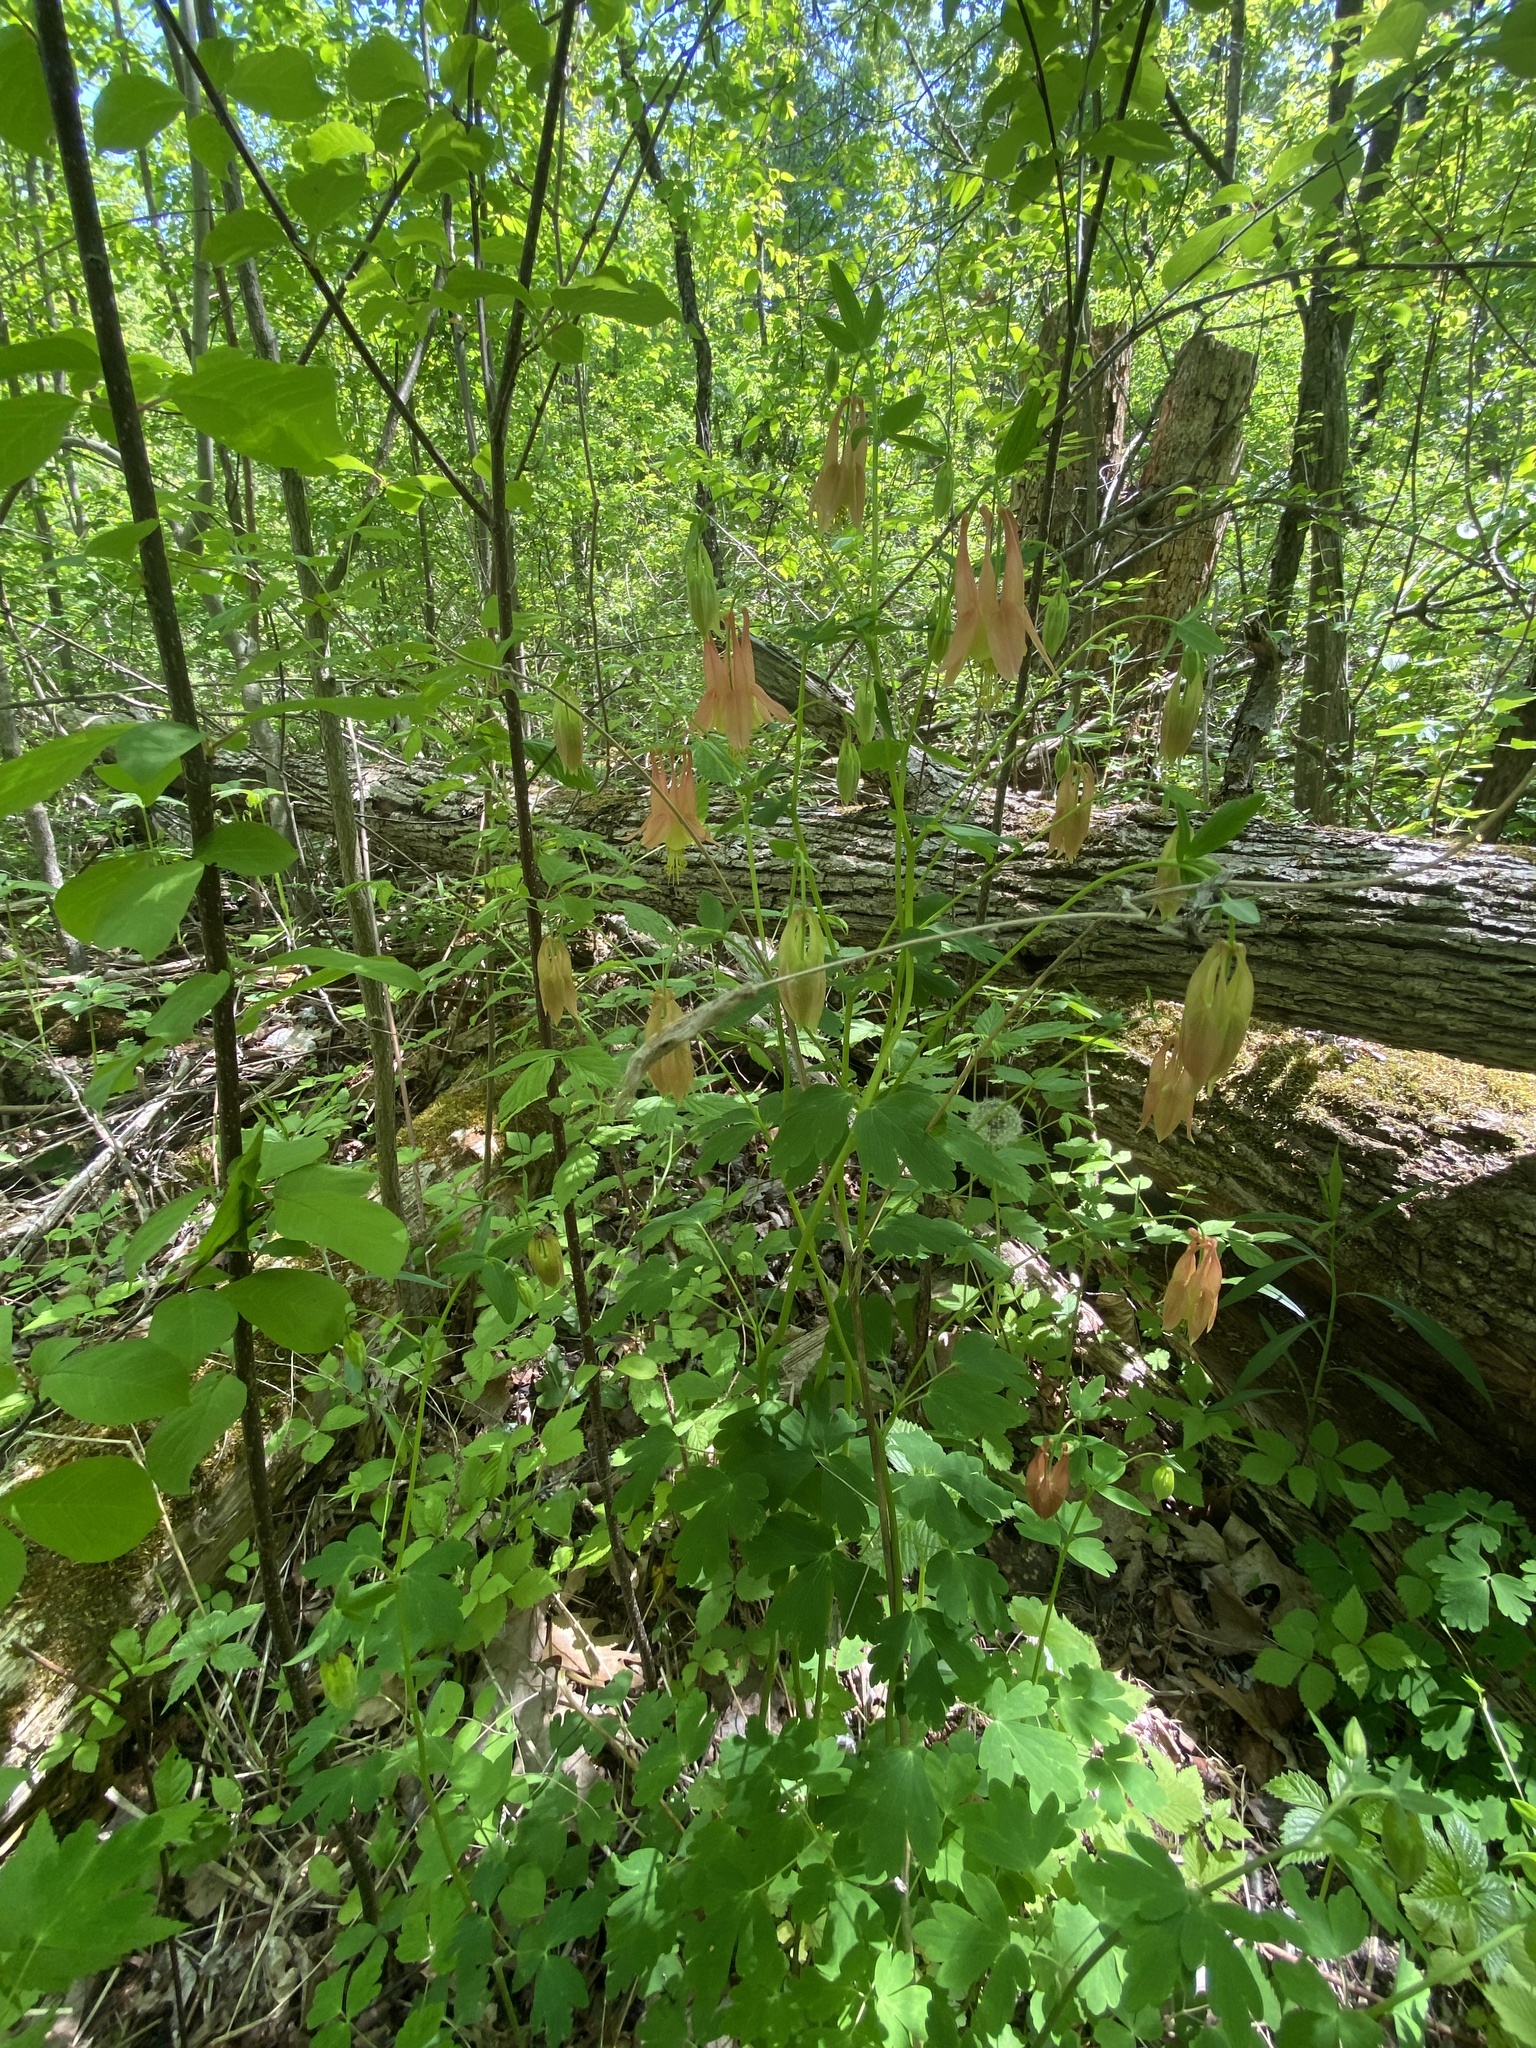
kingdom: Plantae
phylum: Tracheophyta
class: Magnoliopsida
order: Ranunculales
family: Ranunculaceae
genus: Aquilegia
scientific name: Aquilegia canadensis
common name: American columbine
